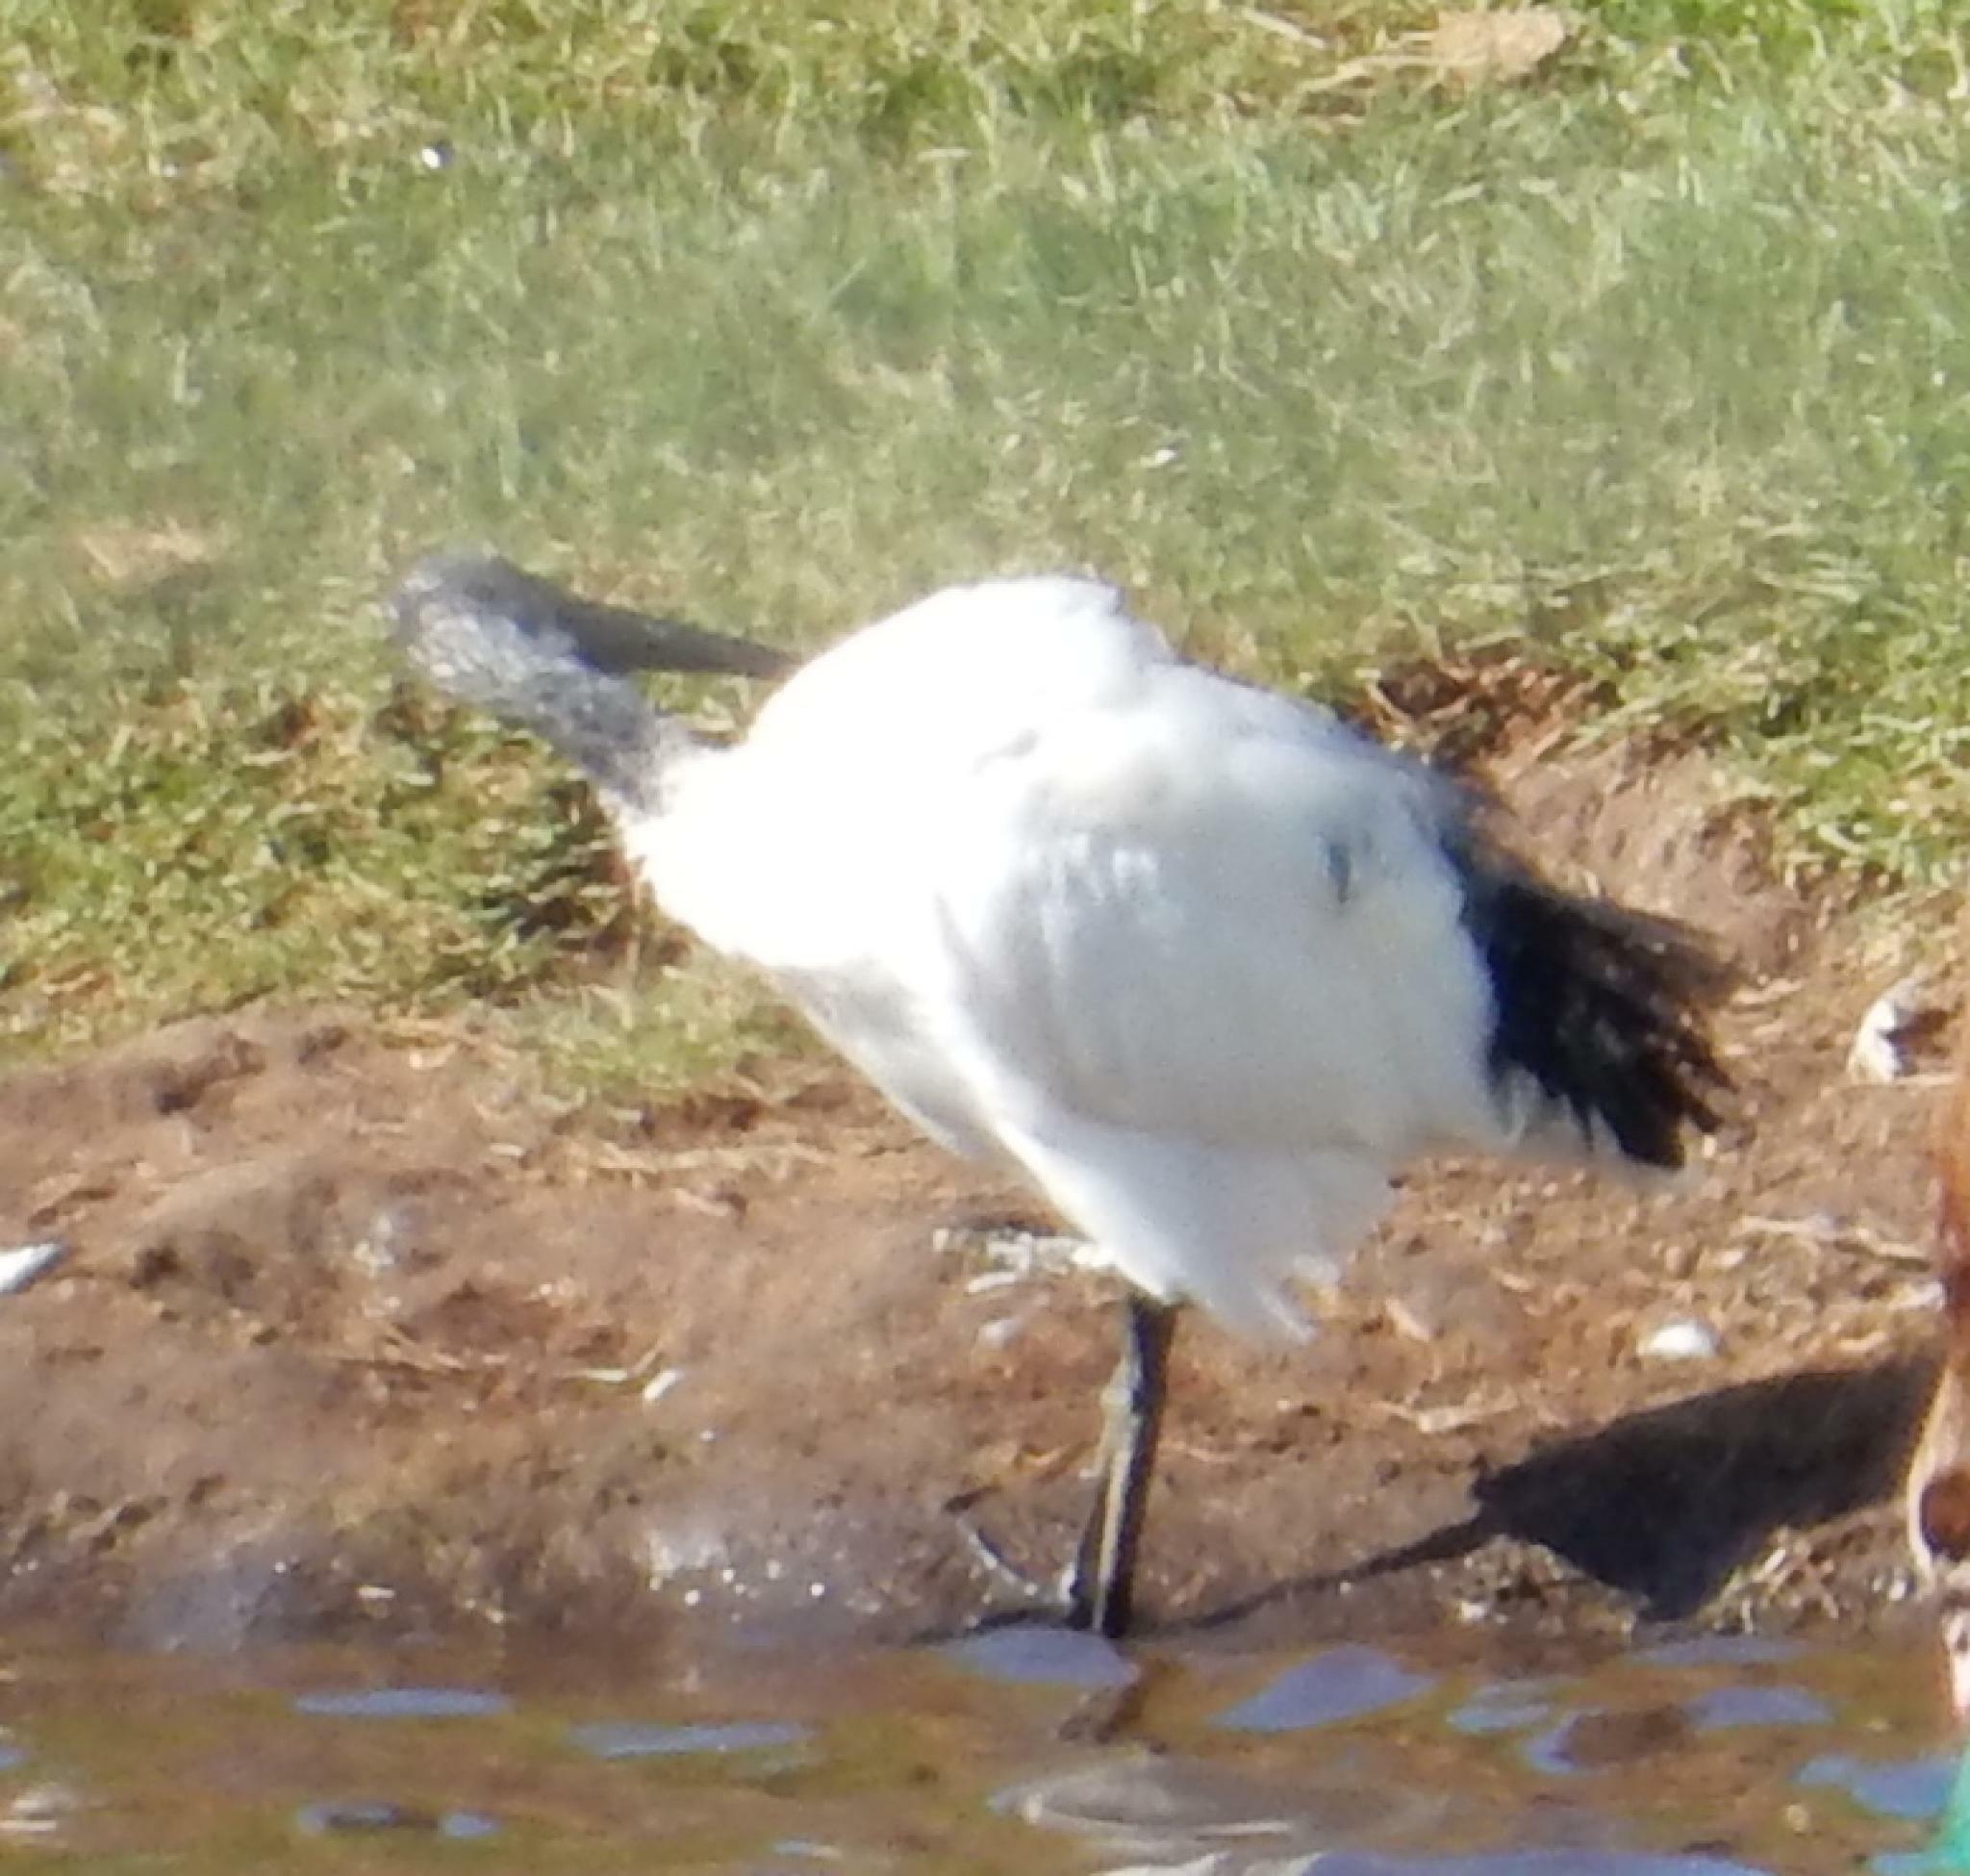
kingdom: Animalia
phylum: Chordata
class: Aves
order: Pelecaniformes
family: Threskiornithidae
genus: Threskiornis
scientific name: Threskiornis aethiopicus
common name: Sacred ibis
